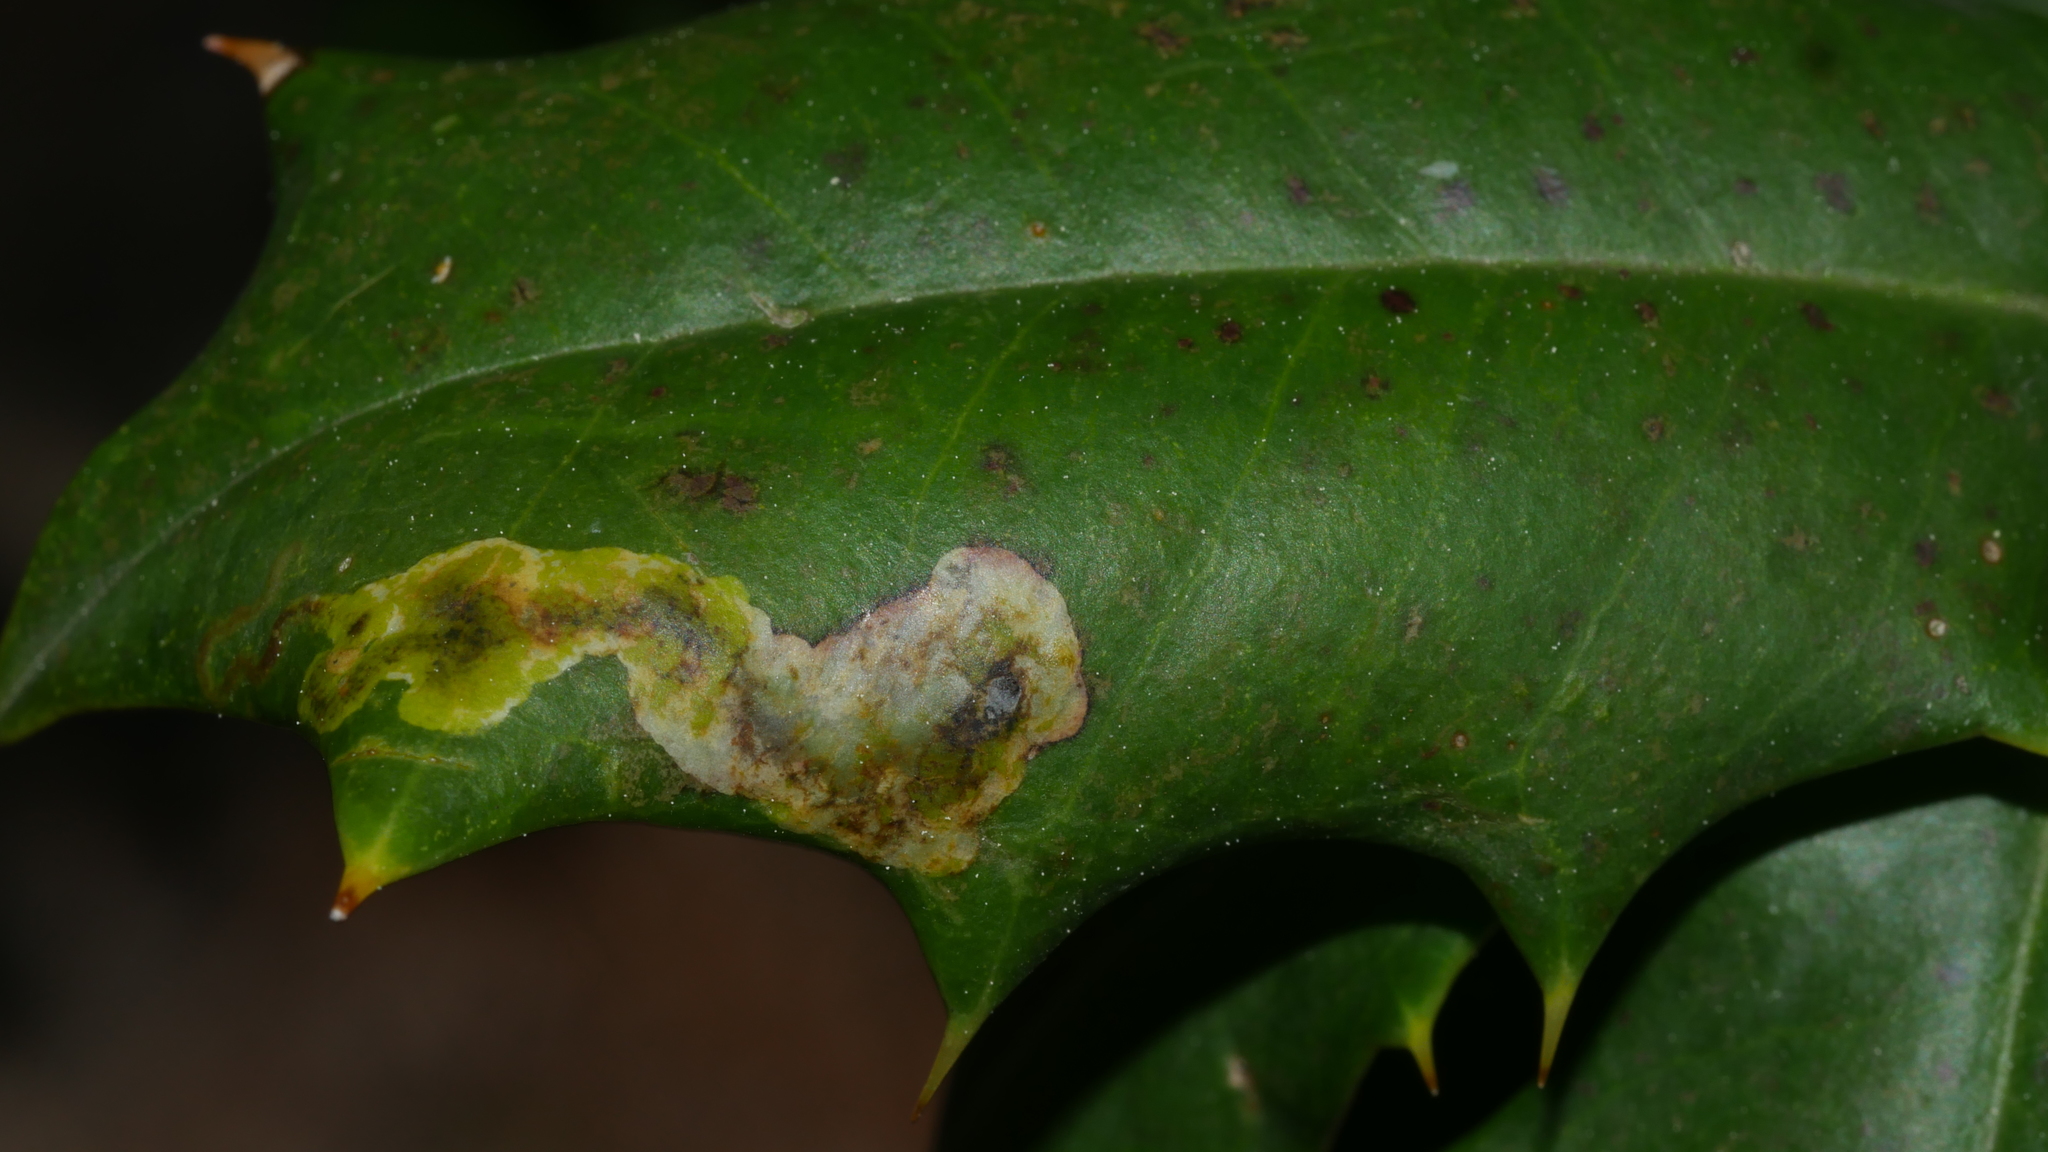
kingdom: Animalia
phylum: Arthropoda
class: Insecta
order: Diptera
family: Agromyzidae
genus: Phytomyza
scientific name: Phytomyza ilicicola
